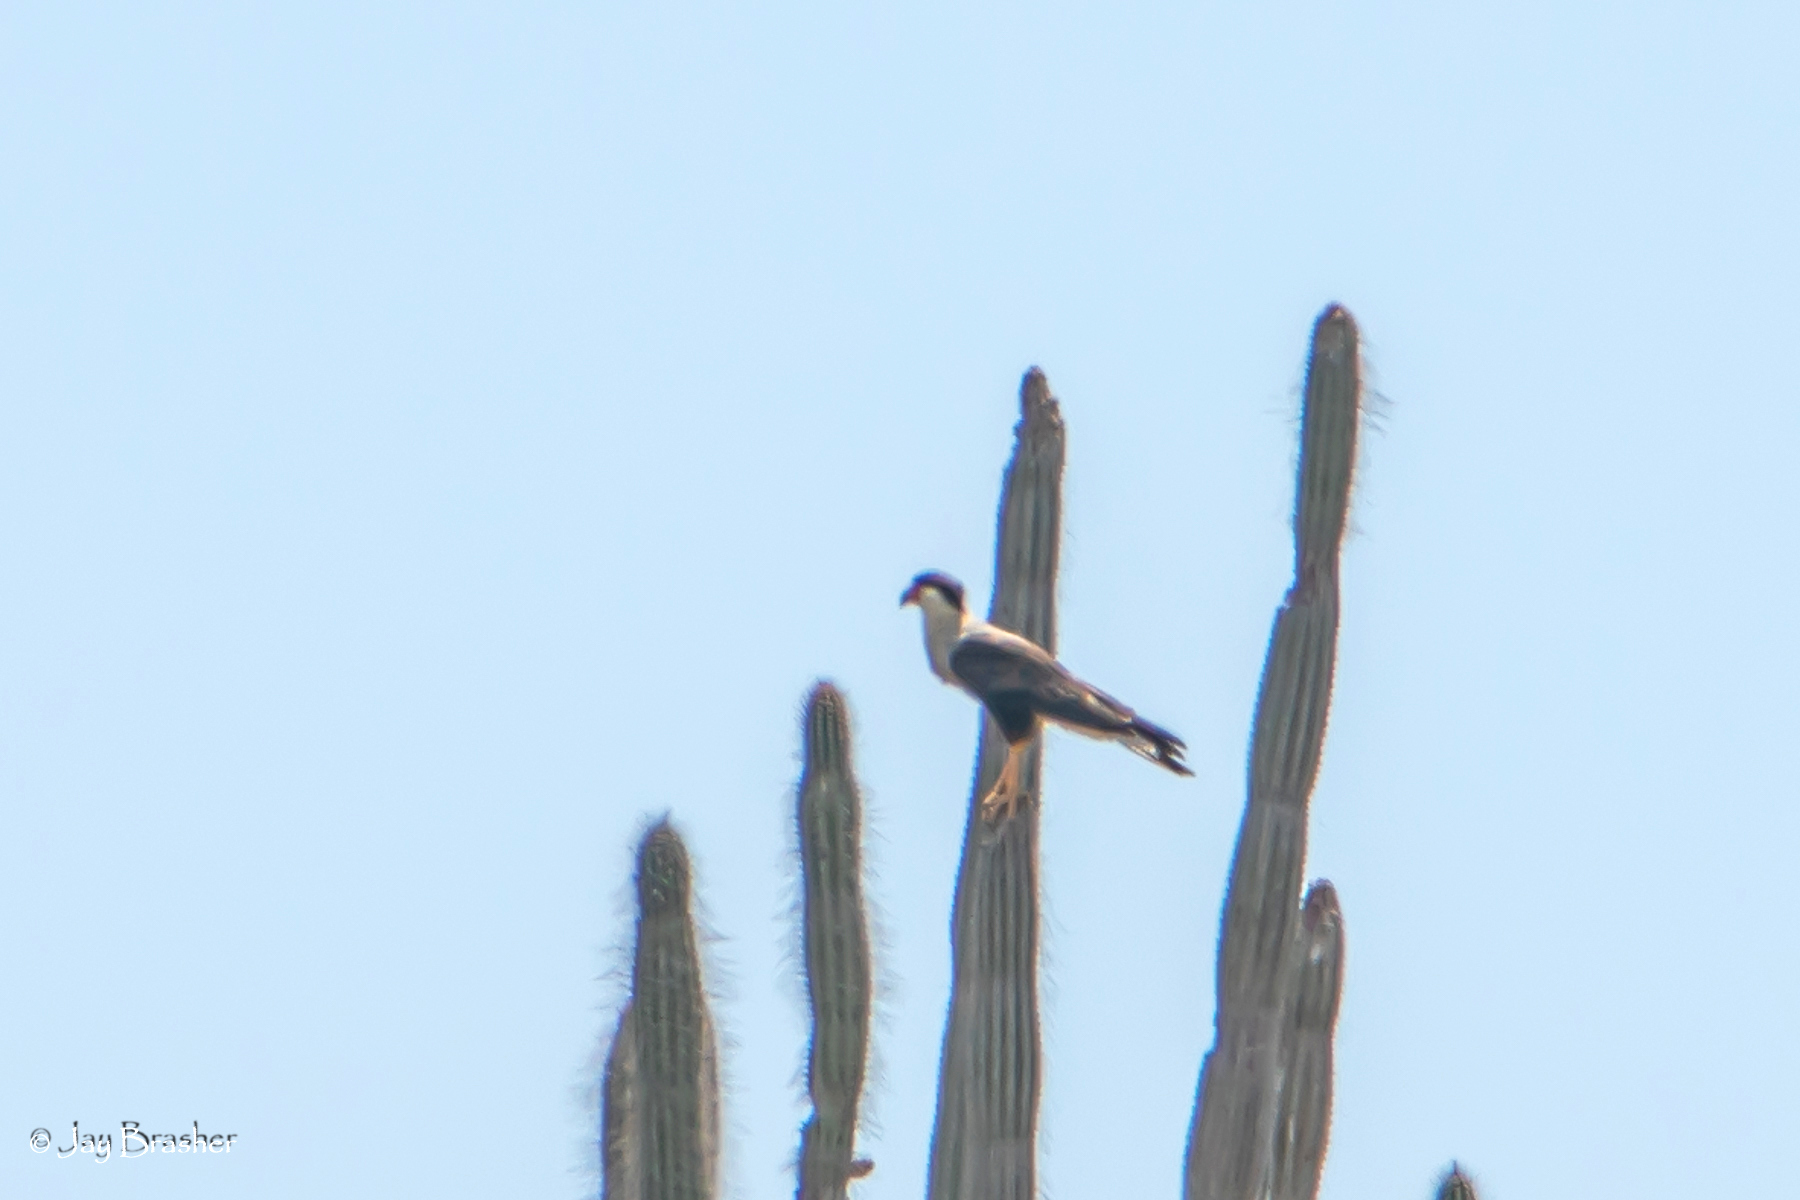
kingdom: Animalia
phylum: Chordata
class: Aves
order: Falconiformes
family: Falconidae
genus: Caracara
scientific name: Caracara plancus
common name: Southern caracara
